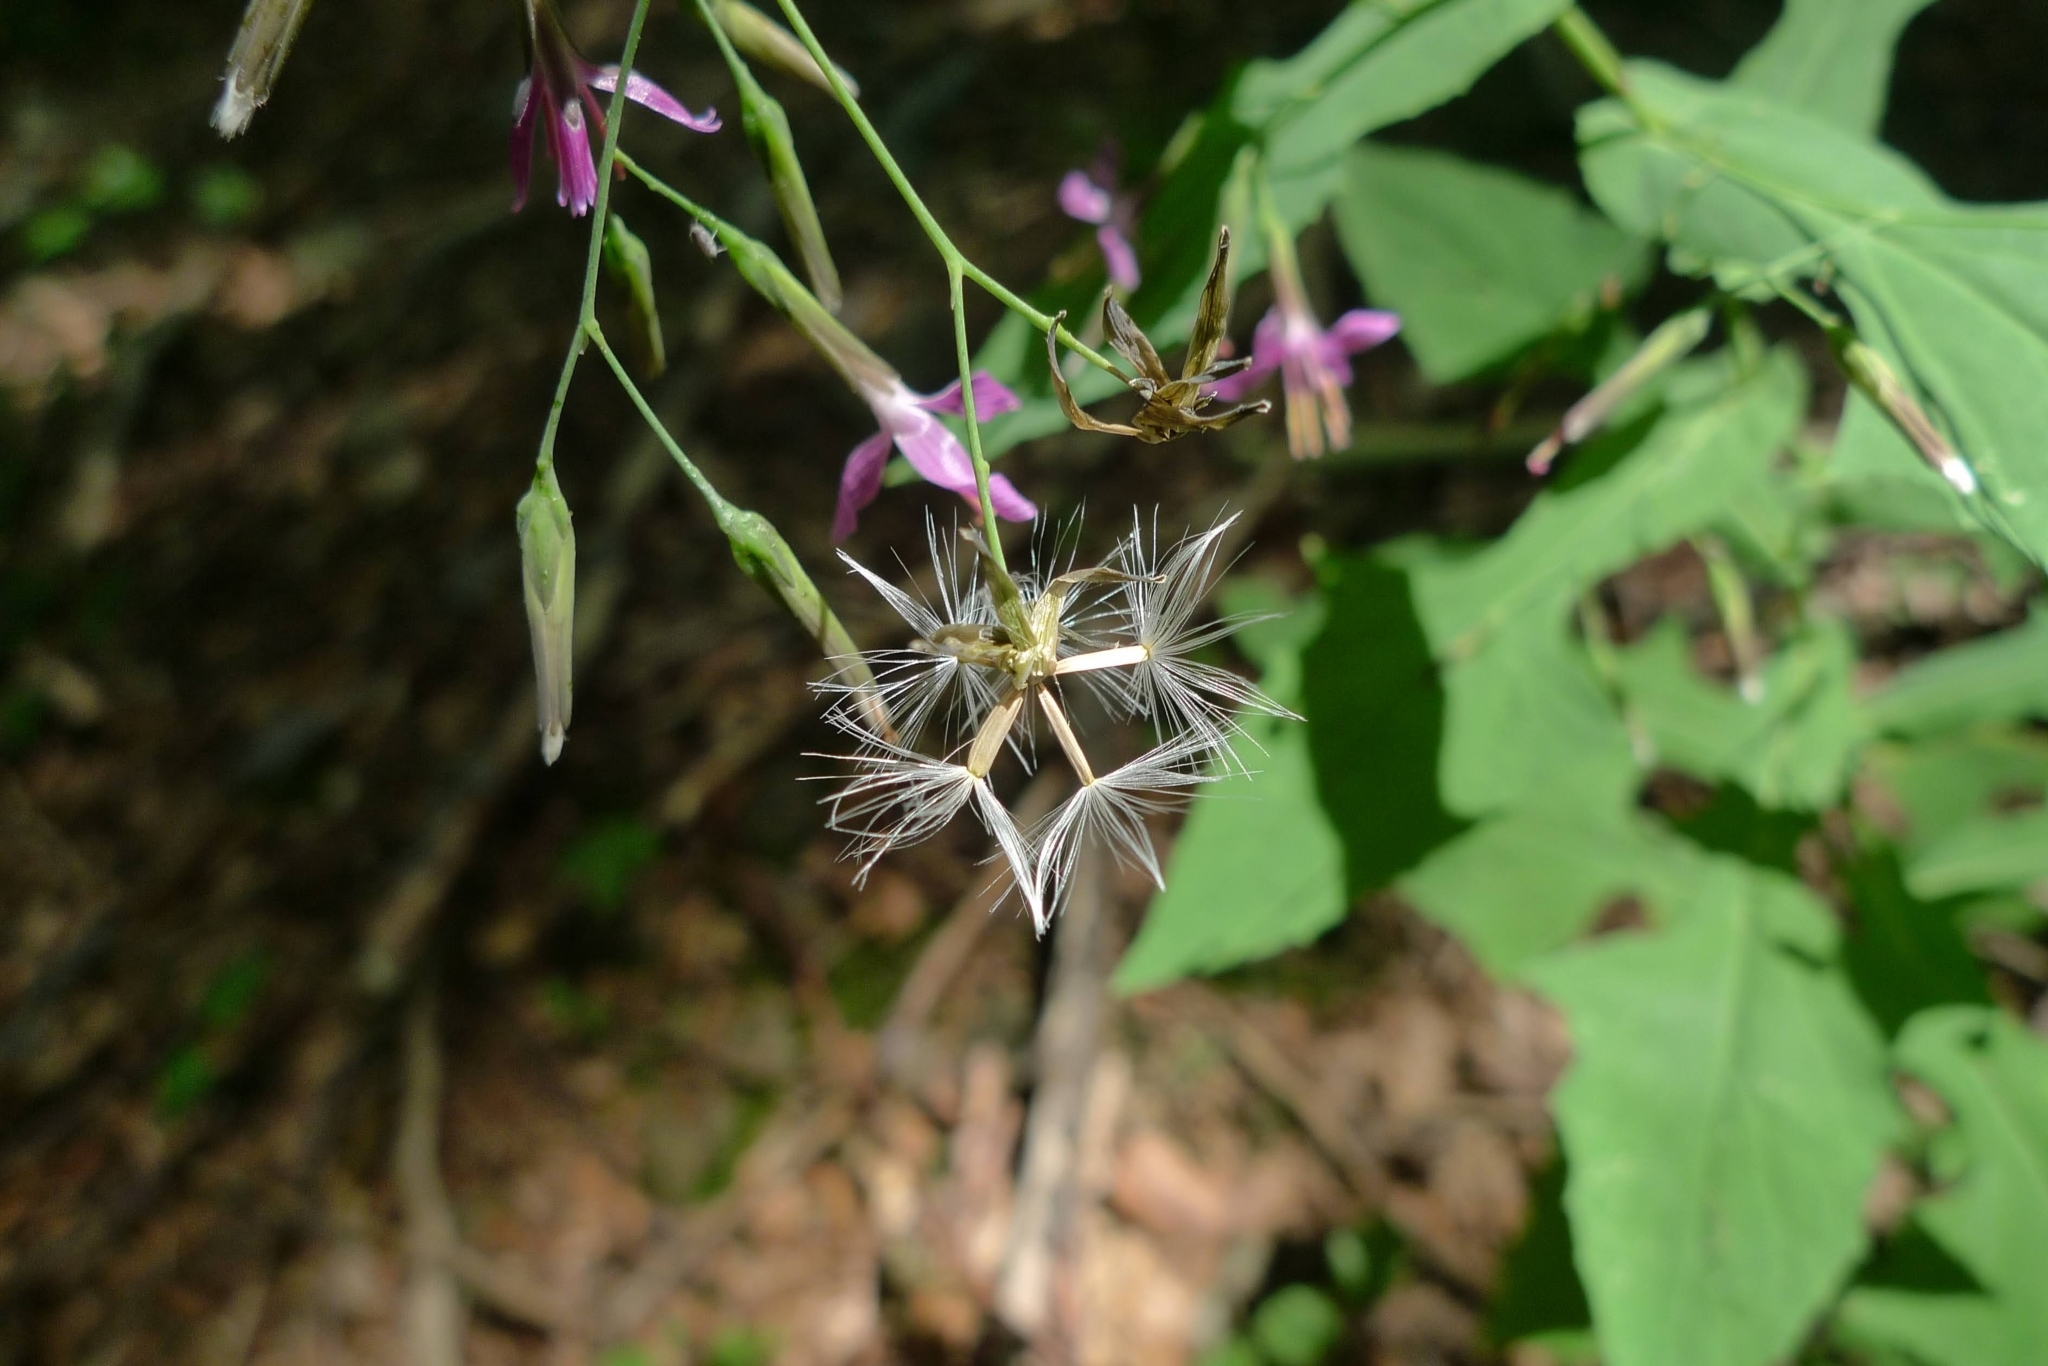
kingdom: Plantae
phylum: Tracheophyta
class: Magnoliopsida
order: Asterales
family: Asteraceae
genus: Prenanthes
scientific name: Prenanthes purpurea
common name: Purple lettuce
